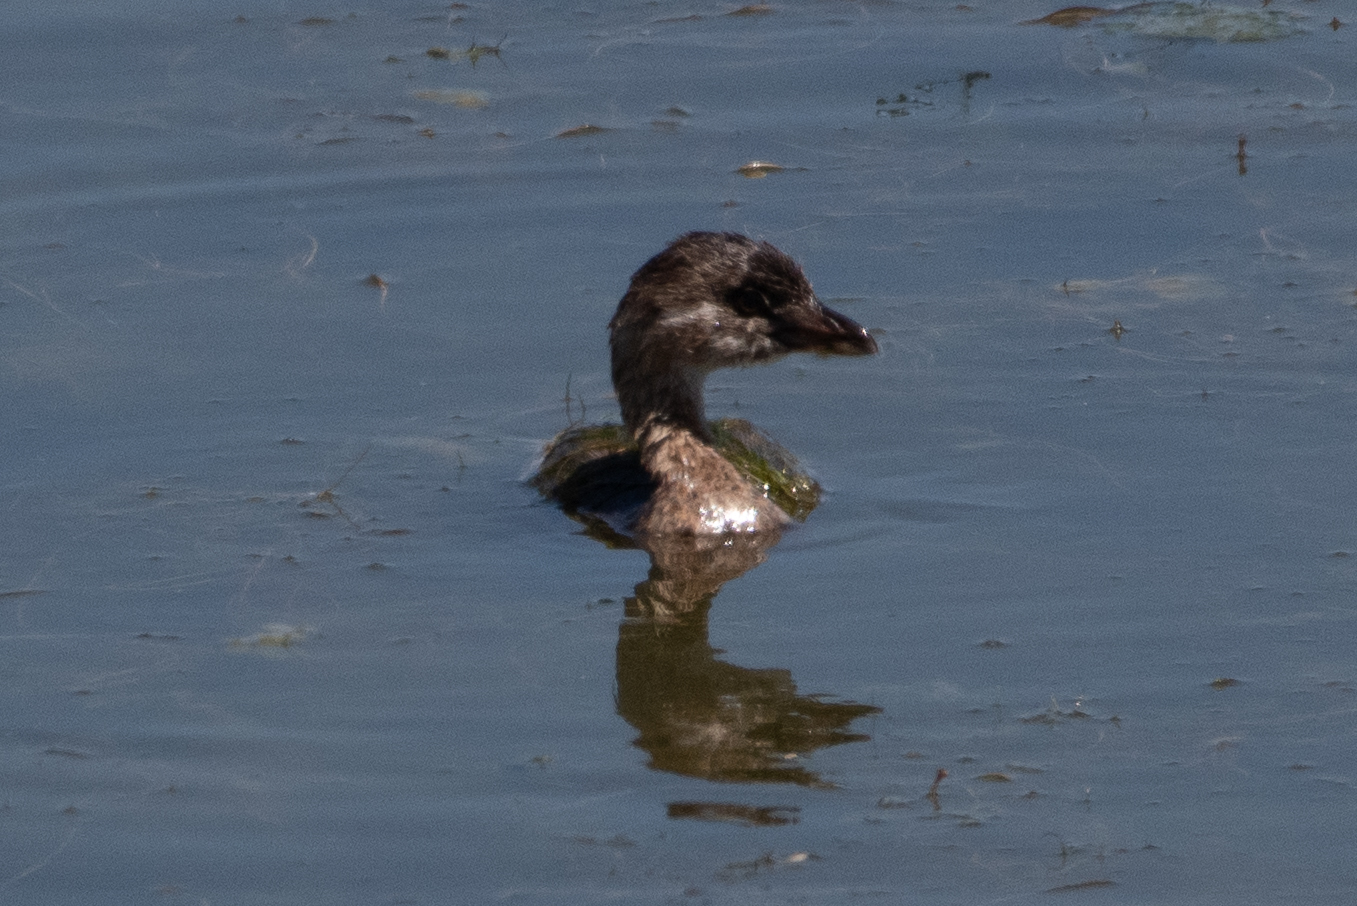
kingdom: Animalia
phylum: Chordata
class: Aves
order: Podicipediformes
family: Podicipedidae
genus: Podilymbus
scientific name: Podilymbus podiceps
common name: Pied-billed grebe
